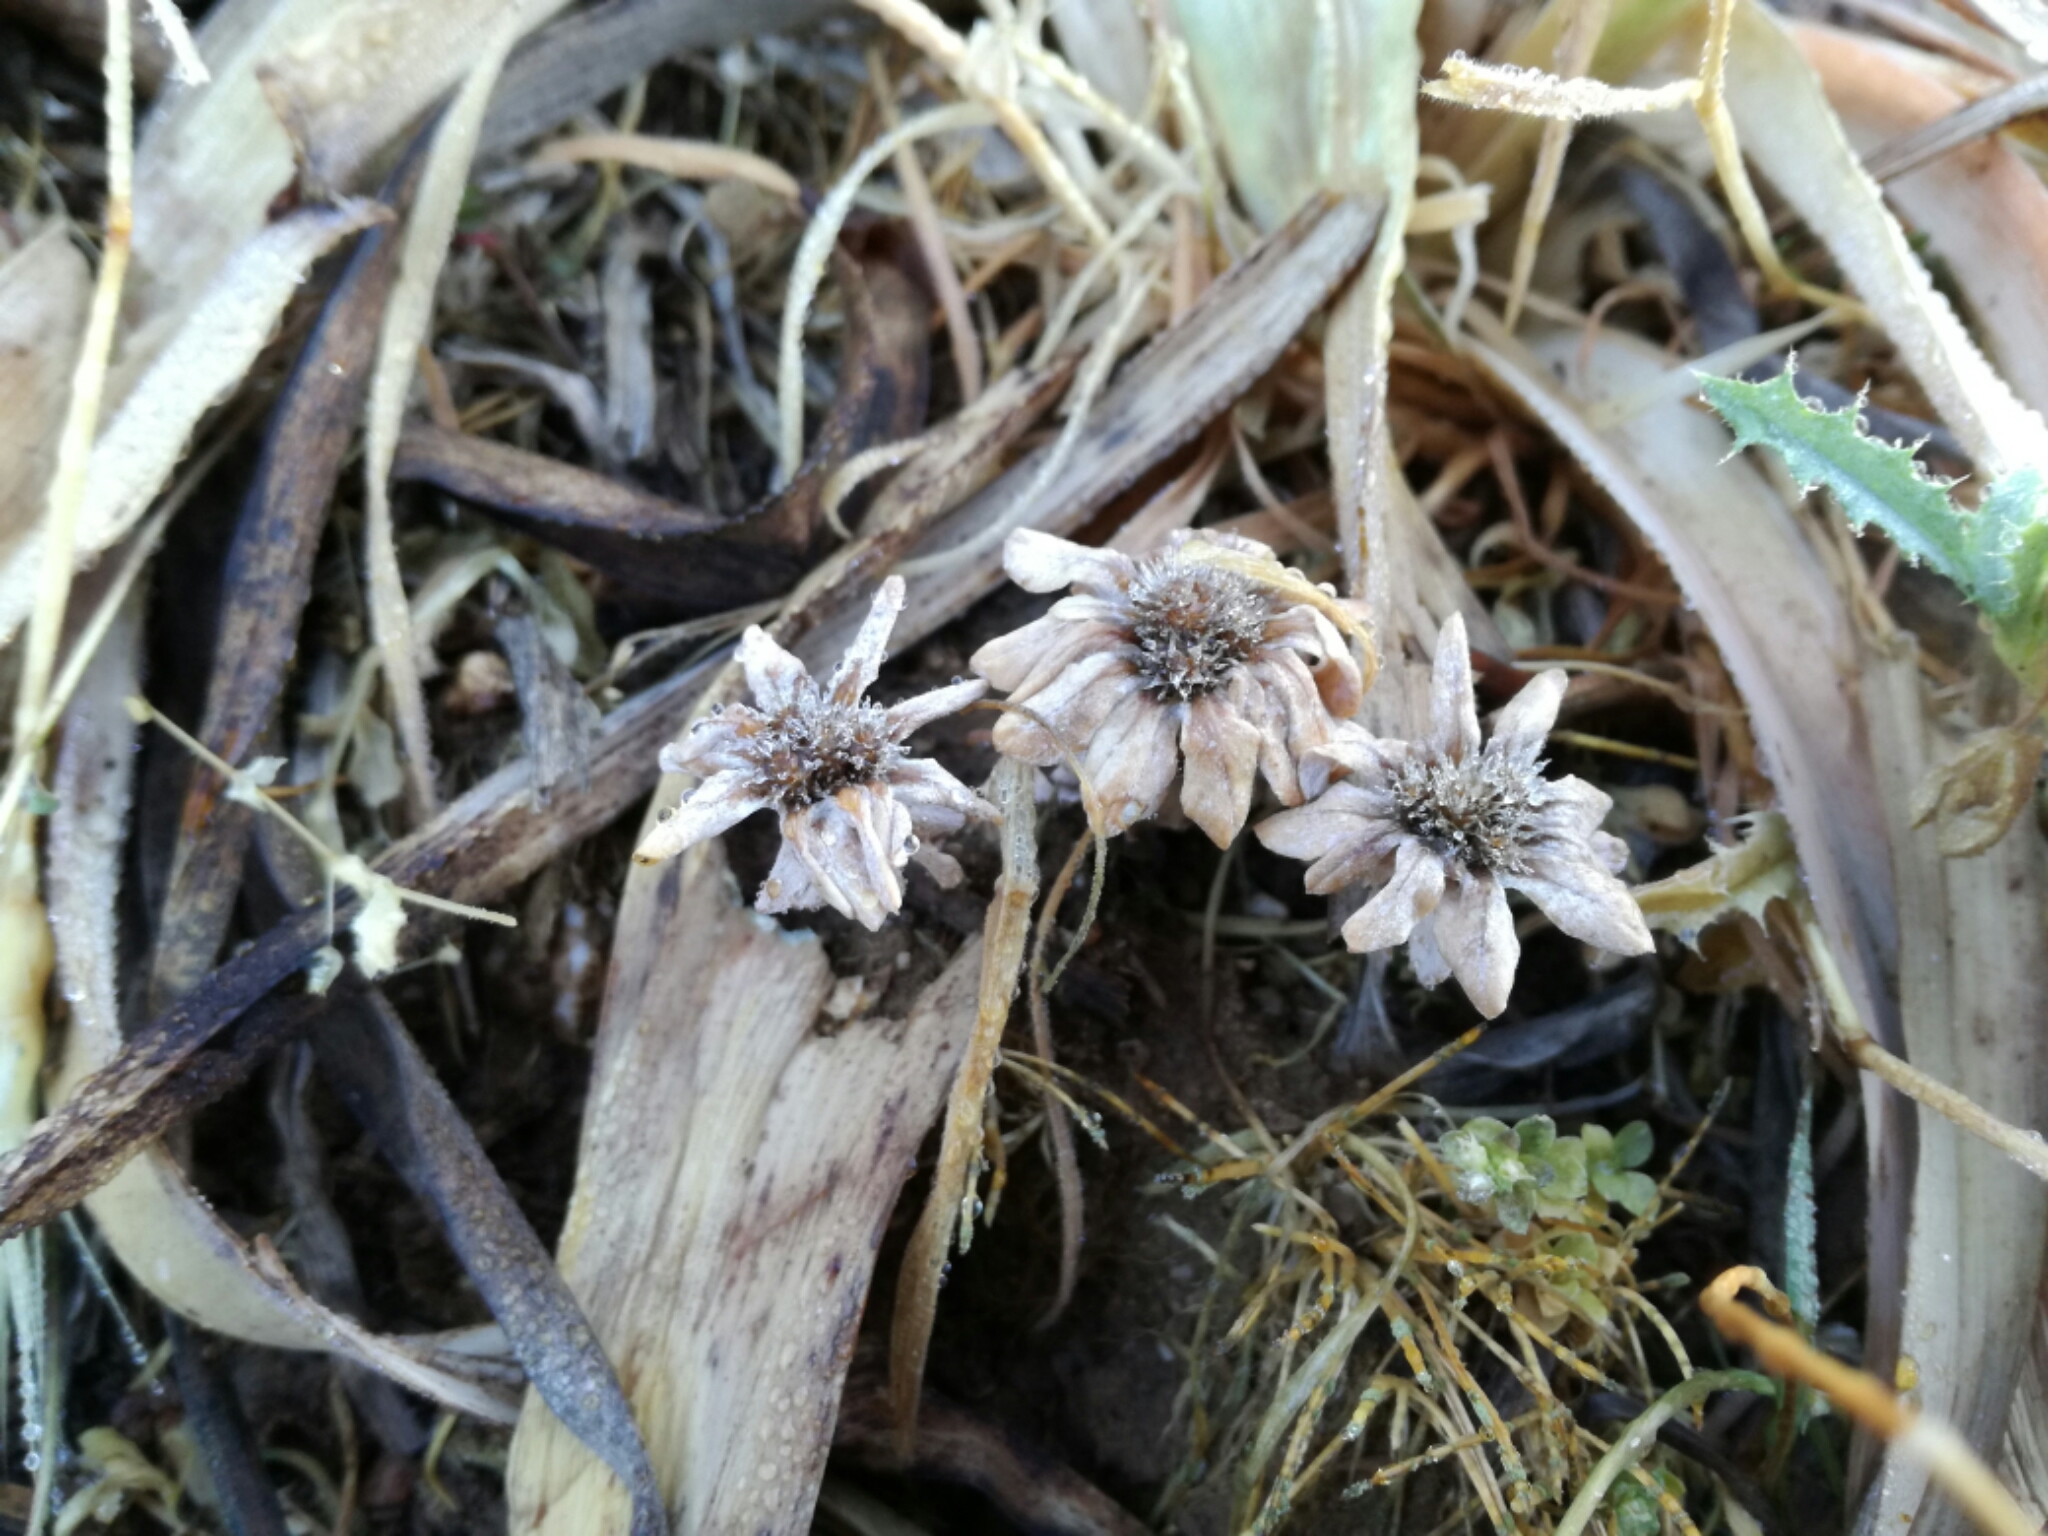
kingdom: Plantae
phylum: Tracheophyta
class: Magnoliopsida
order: Asterales
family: Asteraceae
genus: Filago
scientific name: Filago pygmaea
